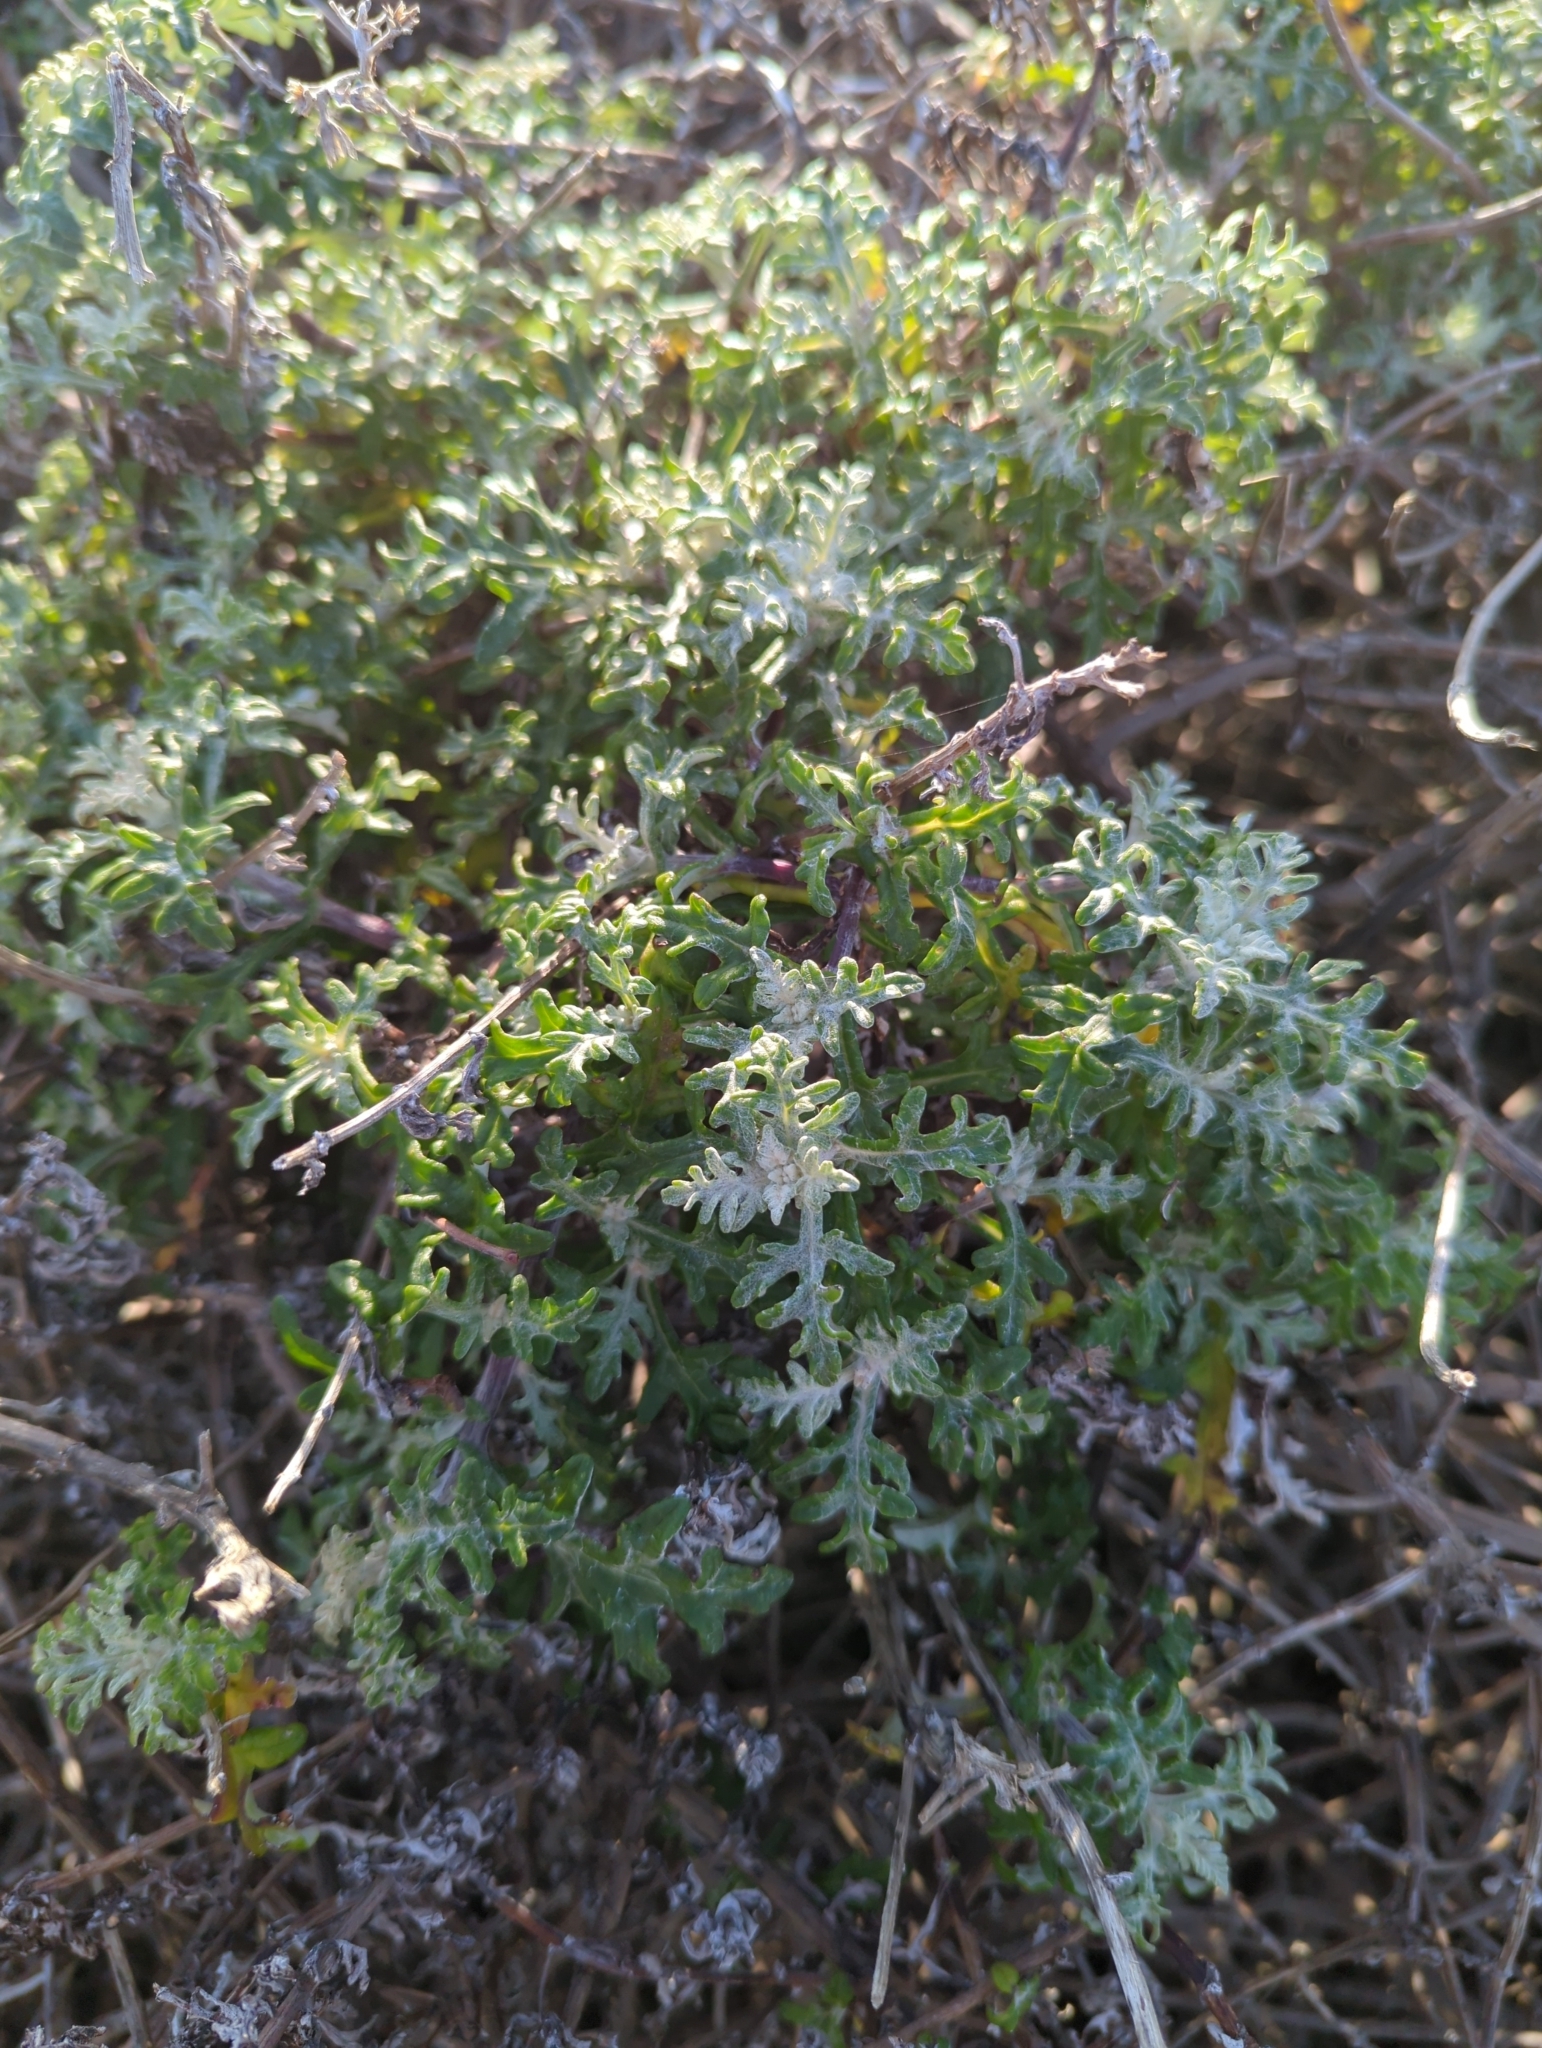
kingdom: Plantae
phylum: Tracheophyta
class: Magnoliopsida
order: Asterales
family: Asteraceae
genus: Eriophyllum
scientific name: Eriophyllum staechadifolium
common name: Lizardtail
